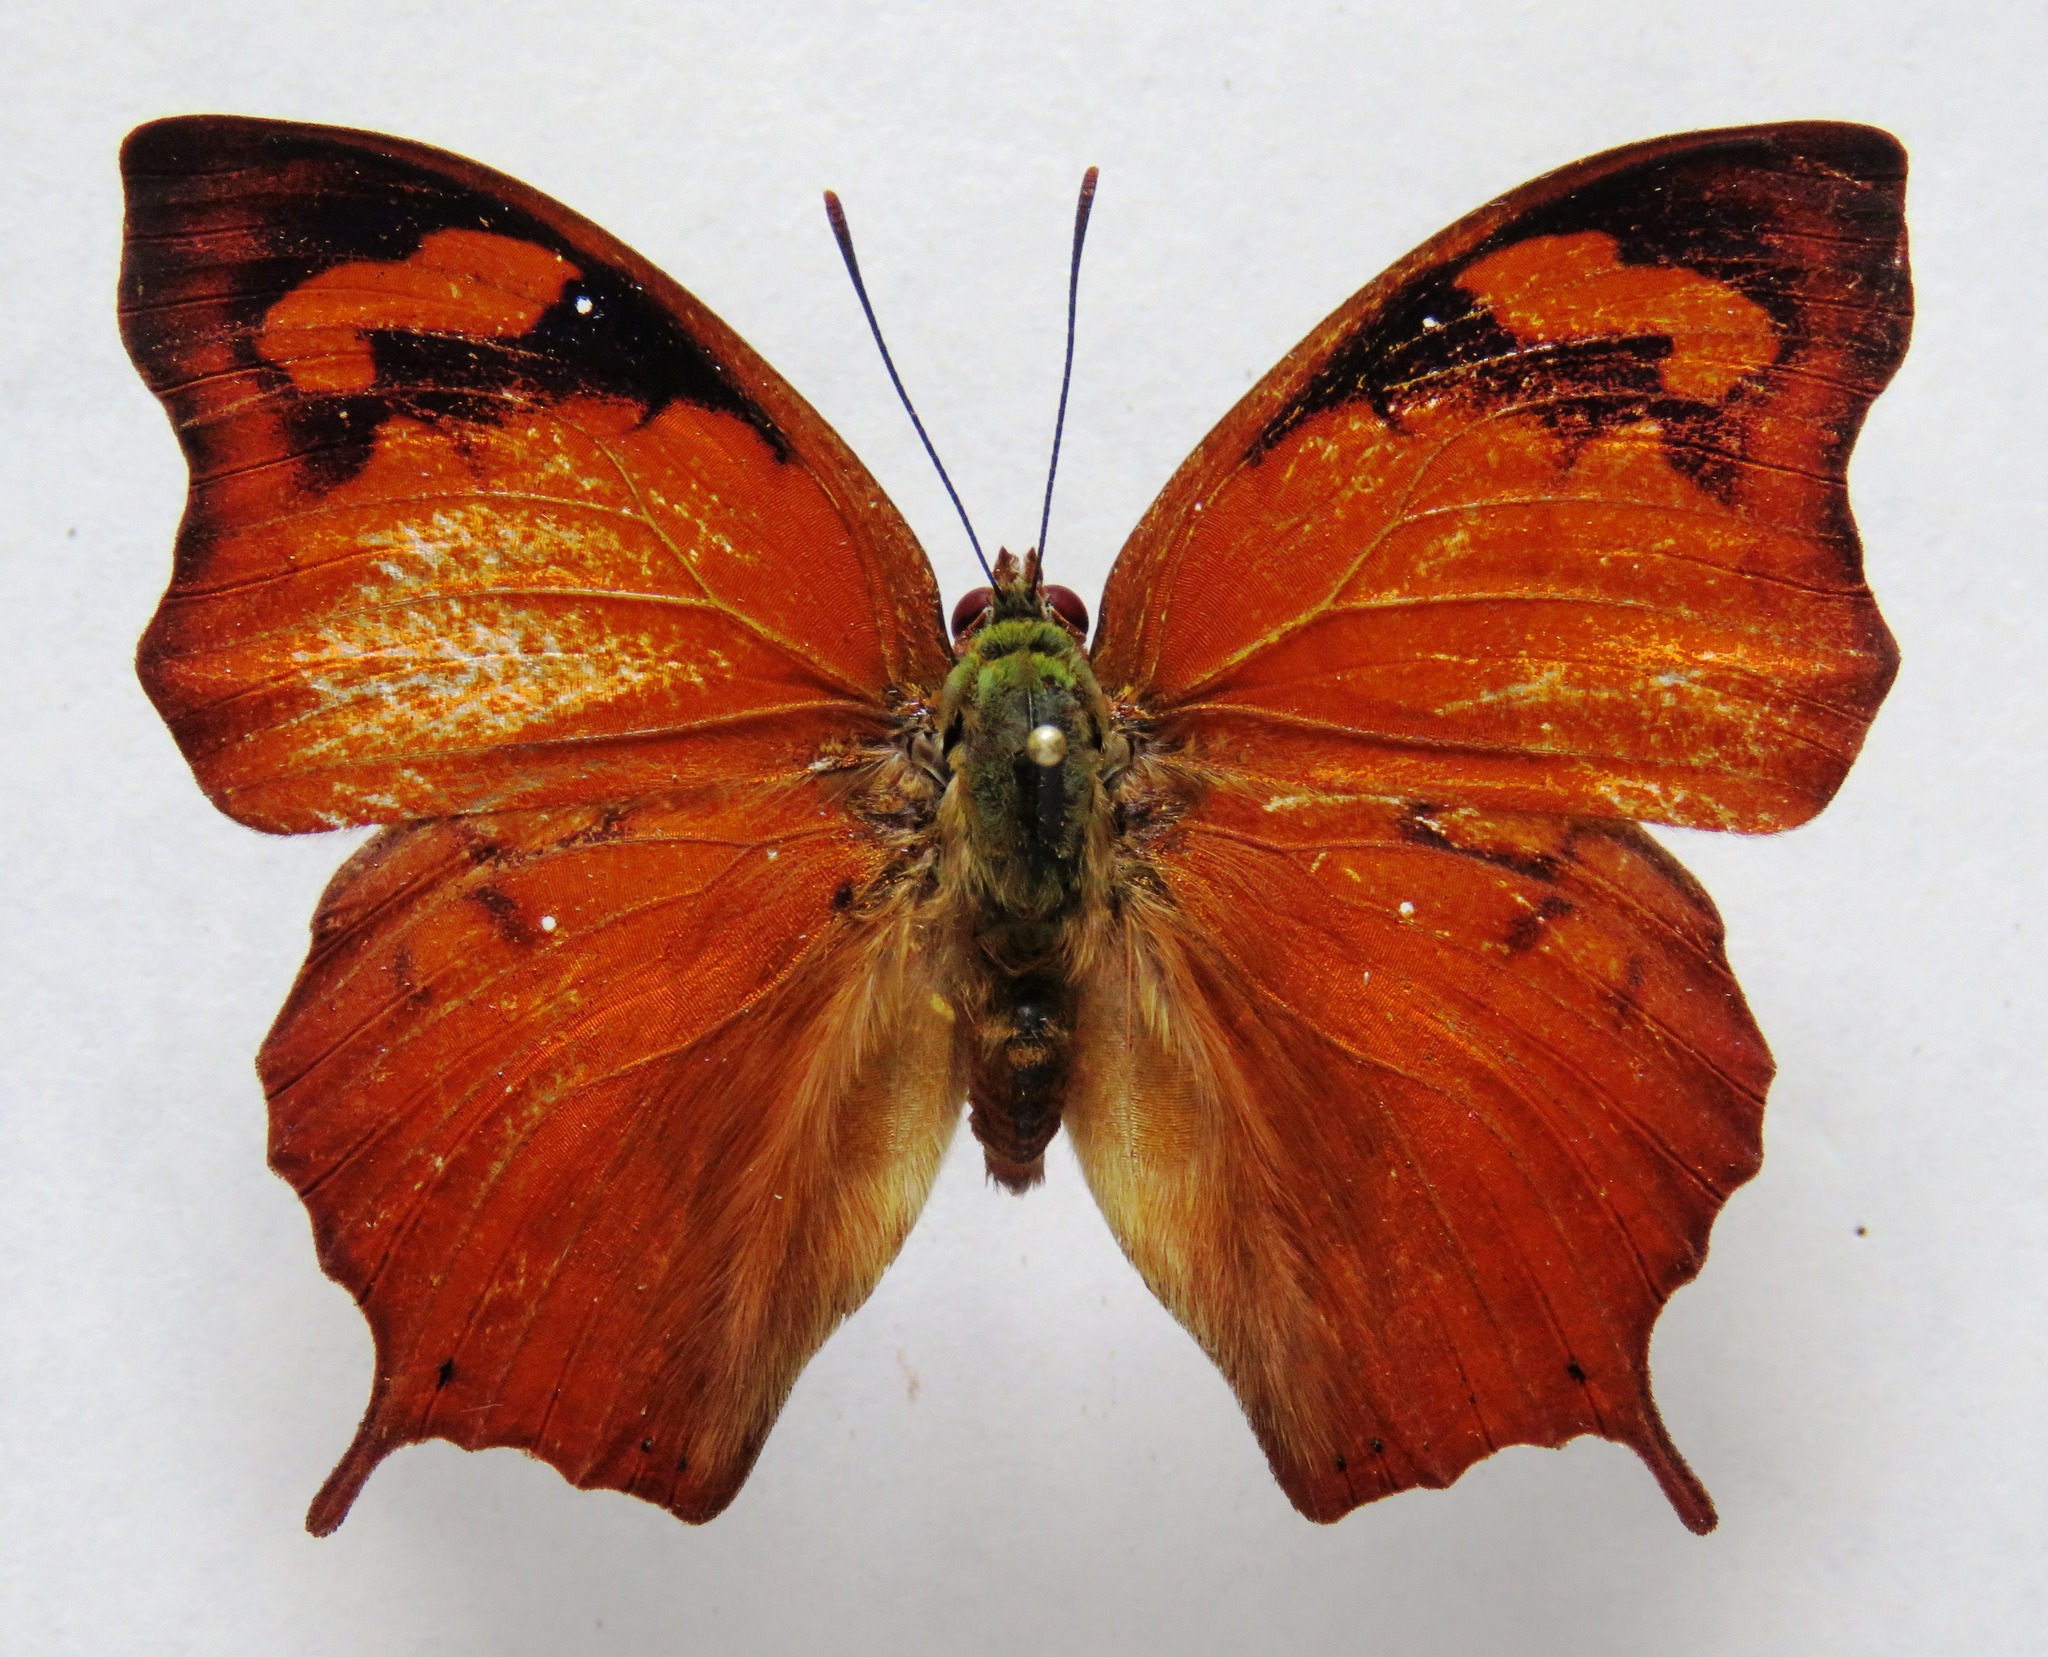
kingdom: Animalia
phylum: Arthropoda
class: Insecta
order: Lepidoptera
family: Nymphalidae
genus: Fountainea
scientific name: Fountainea
